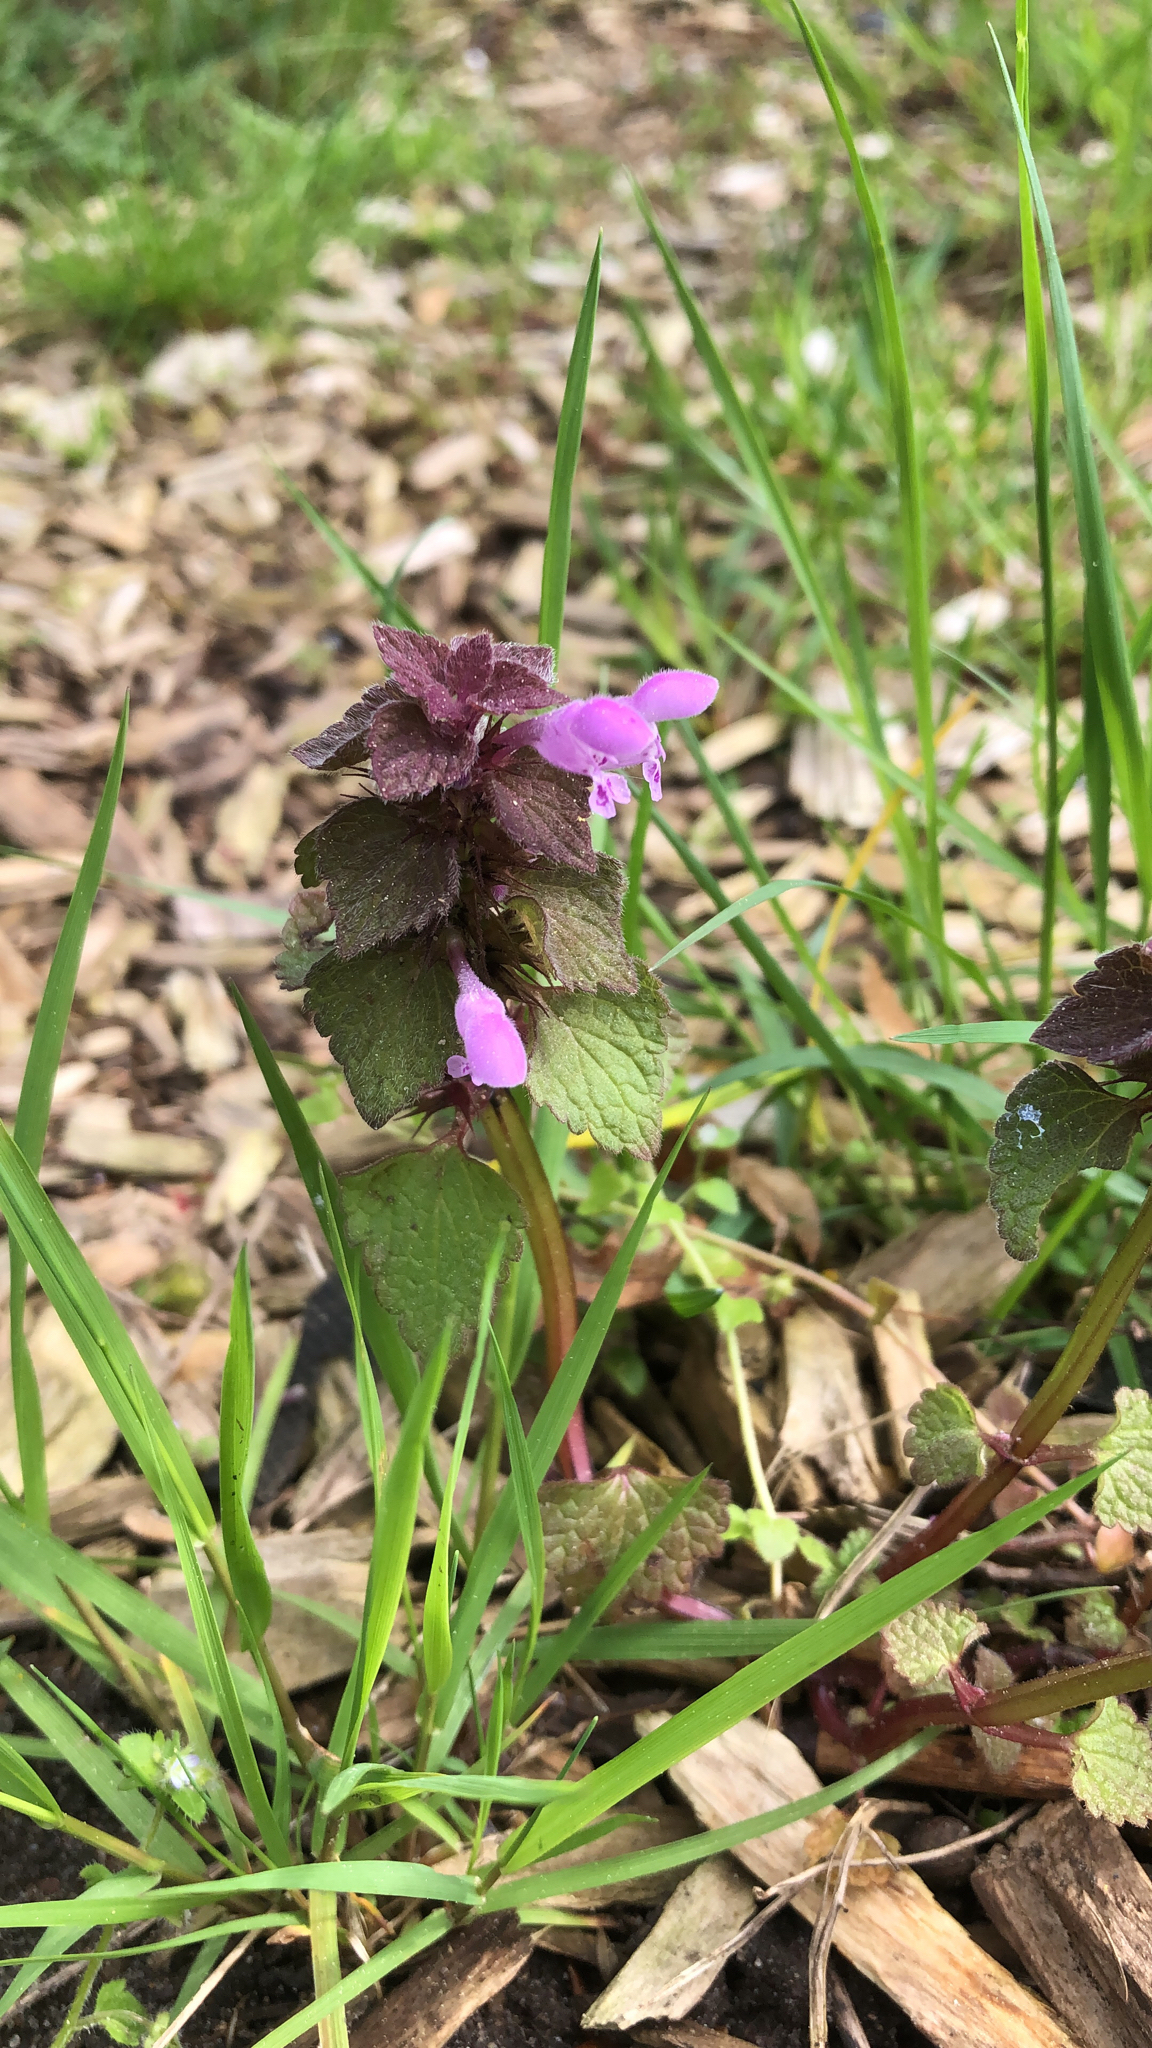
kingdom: Plantae
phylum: Tracheophyta
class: Magnoliopsida
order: Lamiales
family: Lamiaceae
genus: Lamium
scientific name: Lamium purpureum
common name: Red dead-nettle
